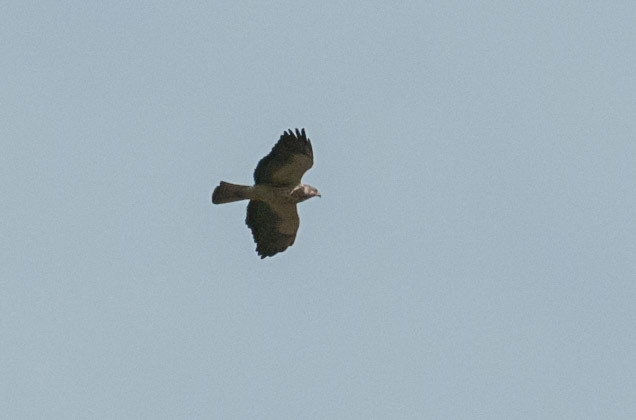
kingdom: Animalia
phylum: Chordata
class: Aves
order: Accipitriformes
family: Accipitridae
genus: Buteo
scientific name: Buteo swainsoni
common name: Swainson's hawk
